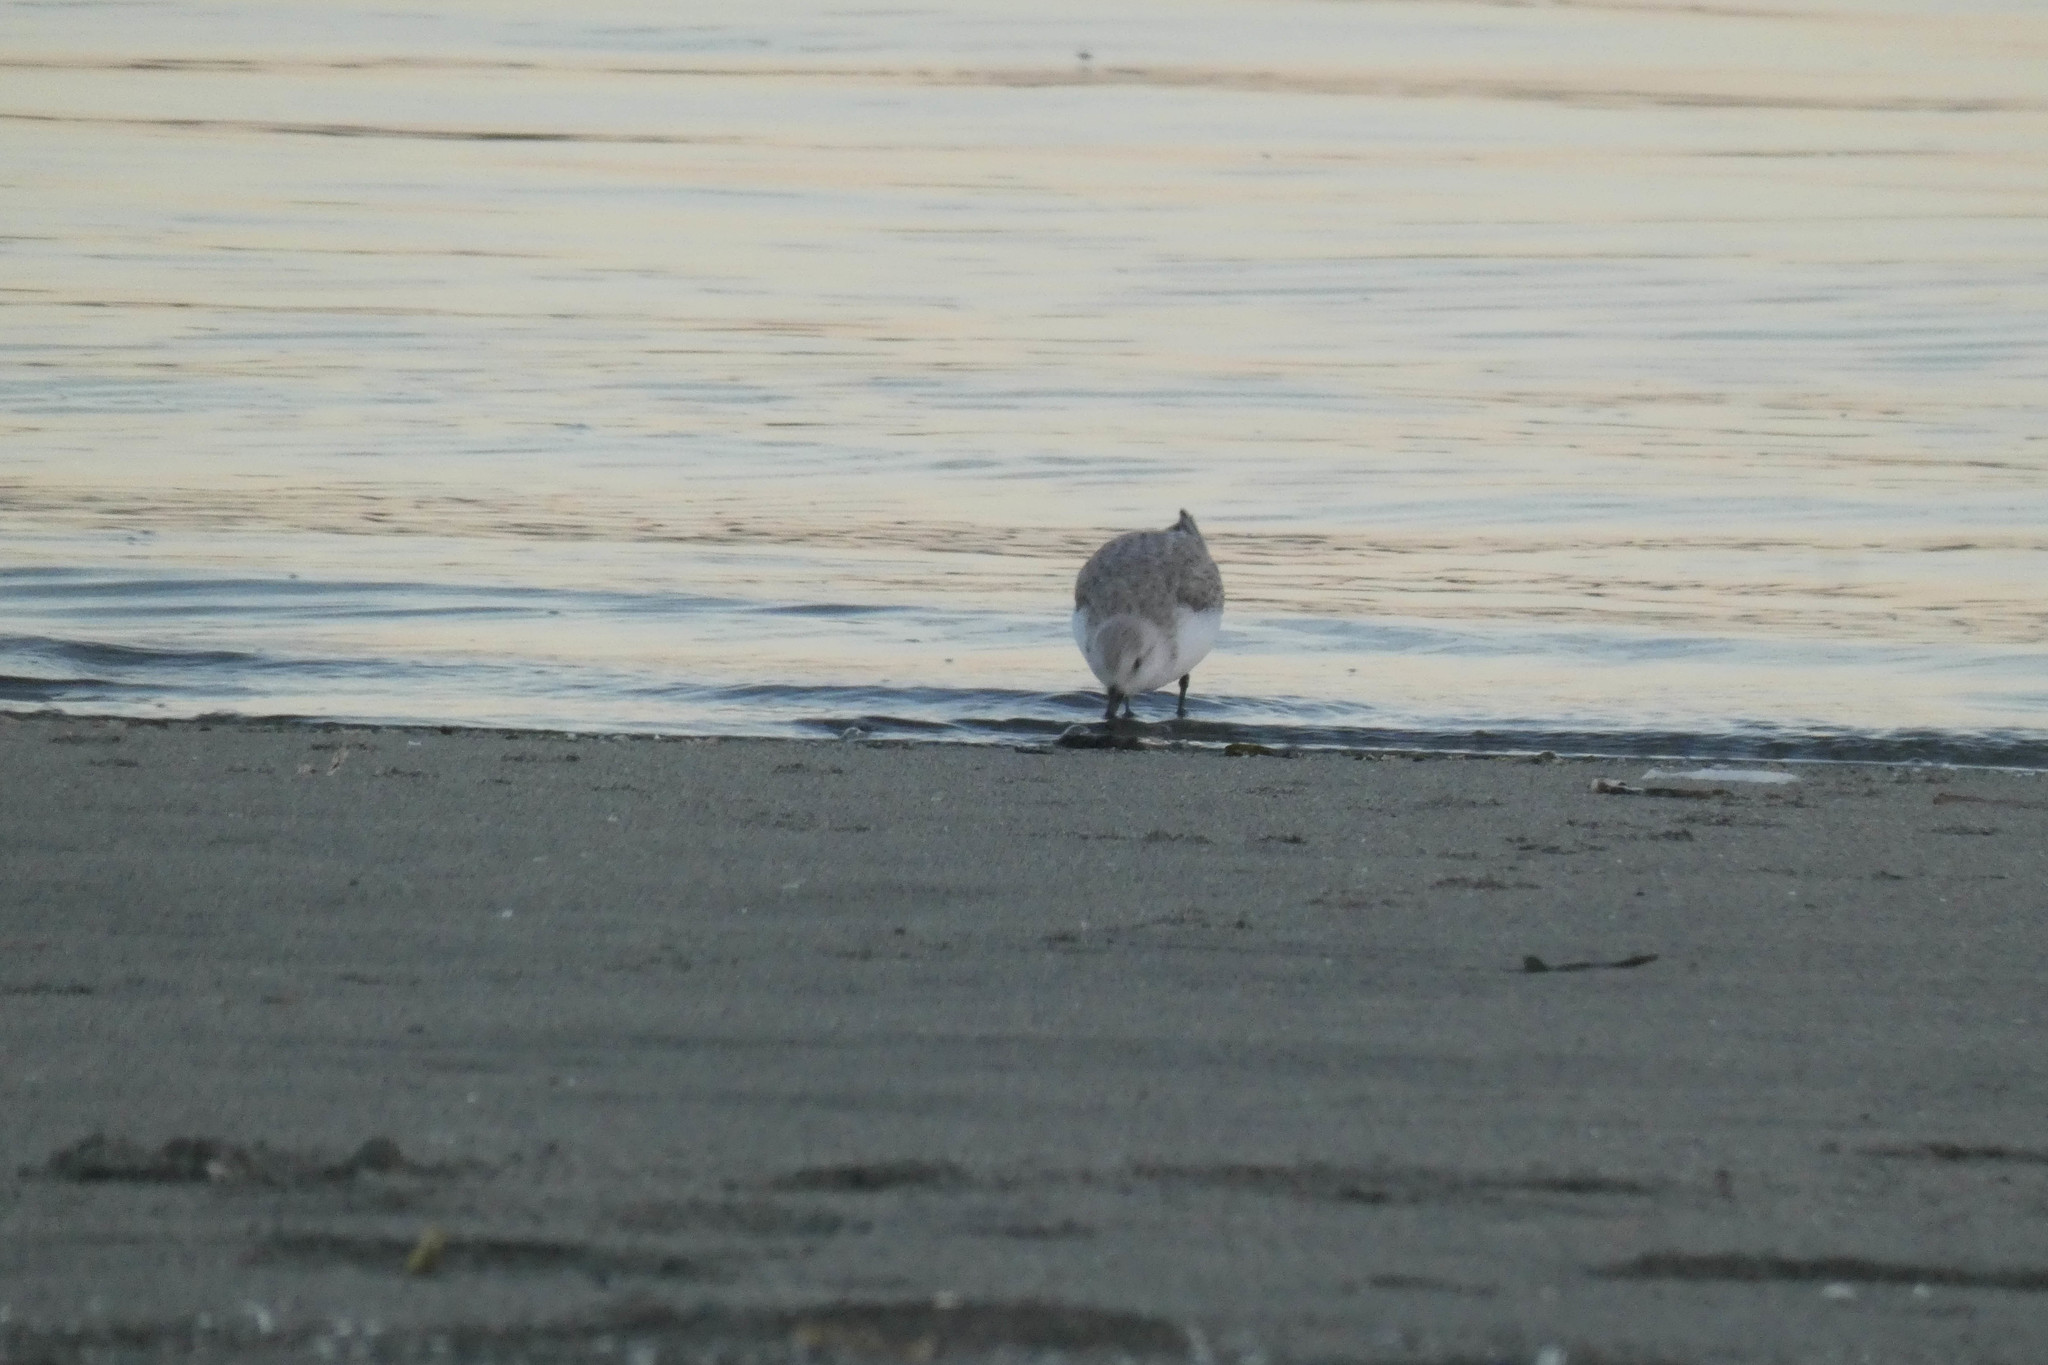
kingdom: Animalia
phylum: Chordata
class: Aves
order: Charadriiformes
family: Scolopacidae
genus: Calidris
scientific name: Calidris alba
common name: Sanderling
